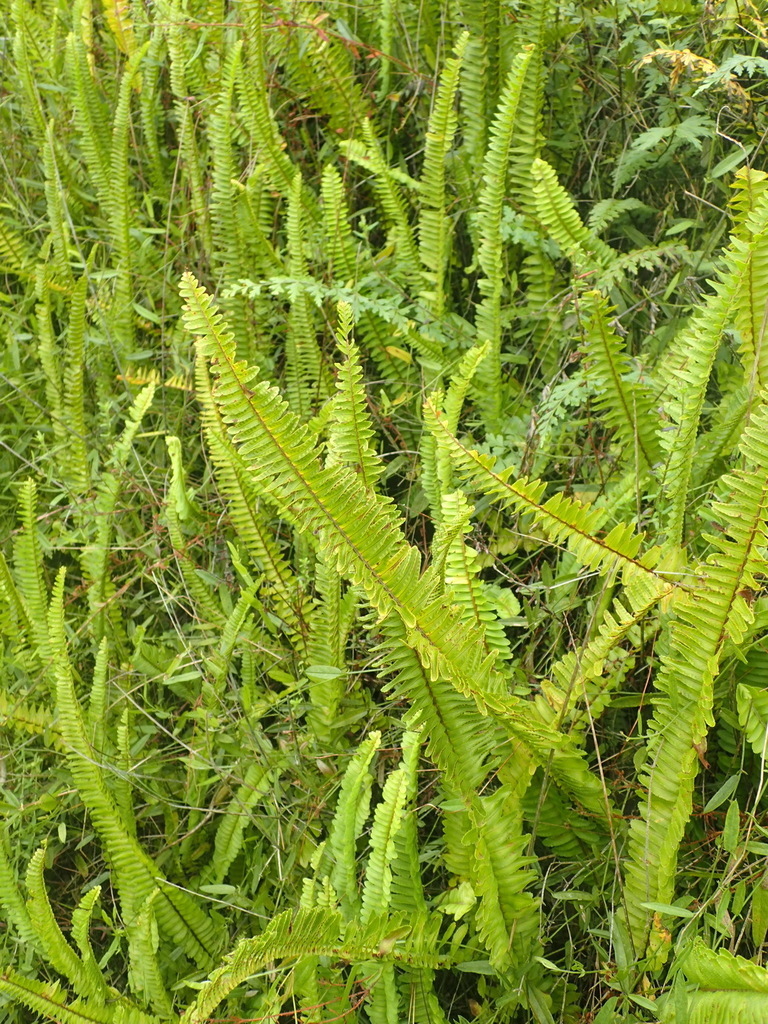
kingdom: Plantae
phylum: Tracheophyta
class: Polypodiopsida
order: Polypodiales
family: Nephrolepidaceae
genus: Nephrolepis
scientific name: Nephrolepis cordifolia
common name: Narrow swordfern
